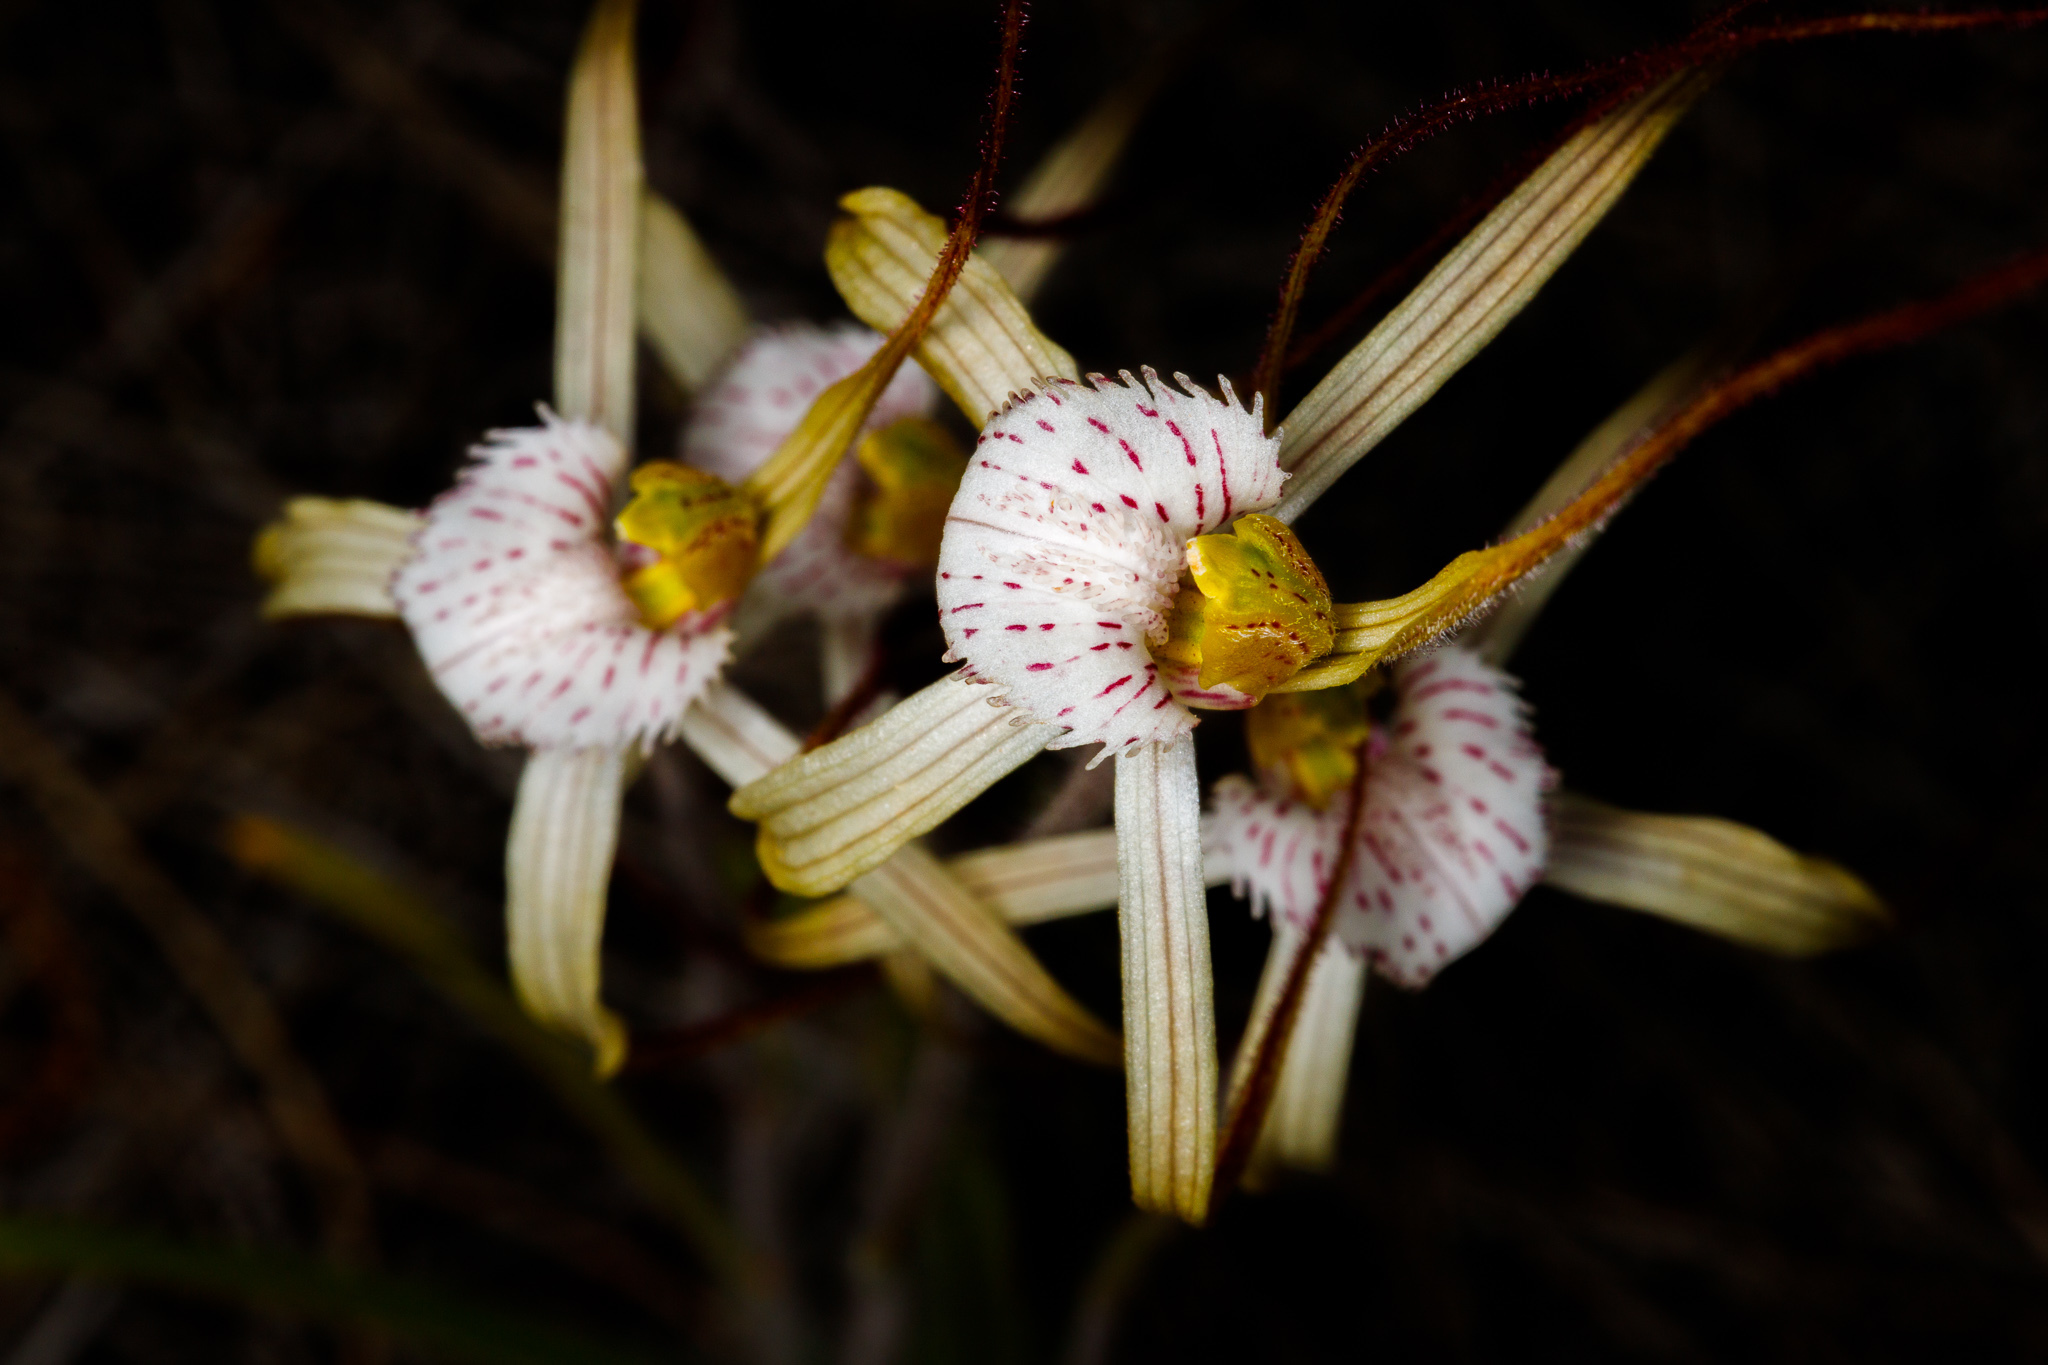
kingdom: Plantae
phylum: Tracheophyta
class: Liliopsida
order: Asparagales
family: Orchidaceae
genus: Caladenia
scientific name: Caladenia nobilis
